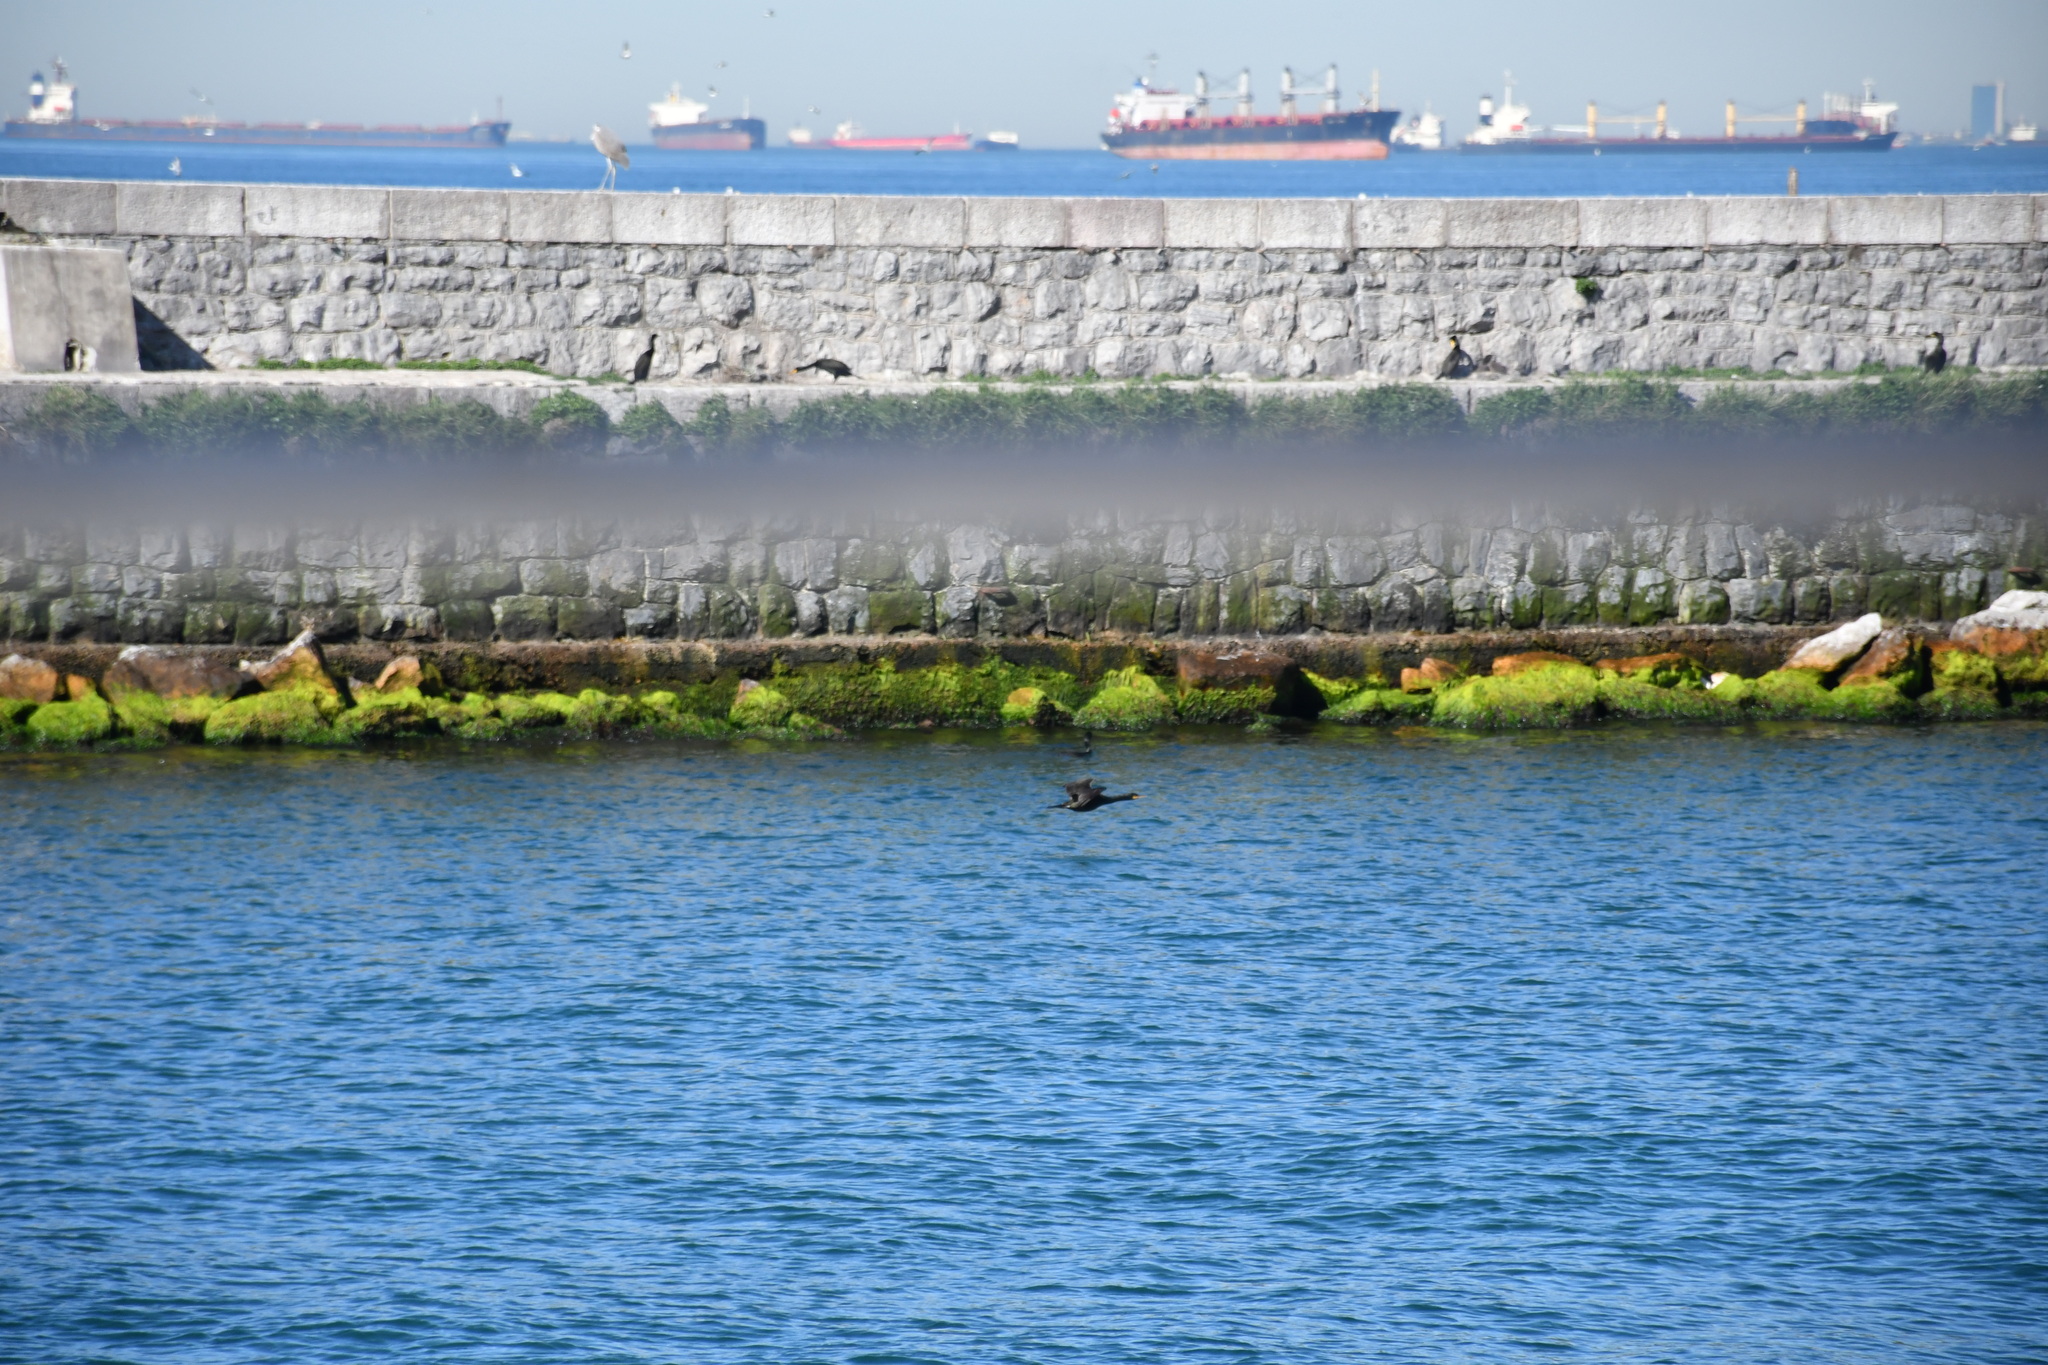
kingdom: Animalia
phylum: Chordata
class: Aves
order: Suliformes
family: Phalacrocoracidae
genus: Phalacrocorax
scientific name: Phalacrocorax aristotelis
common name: European shag
